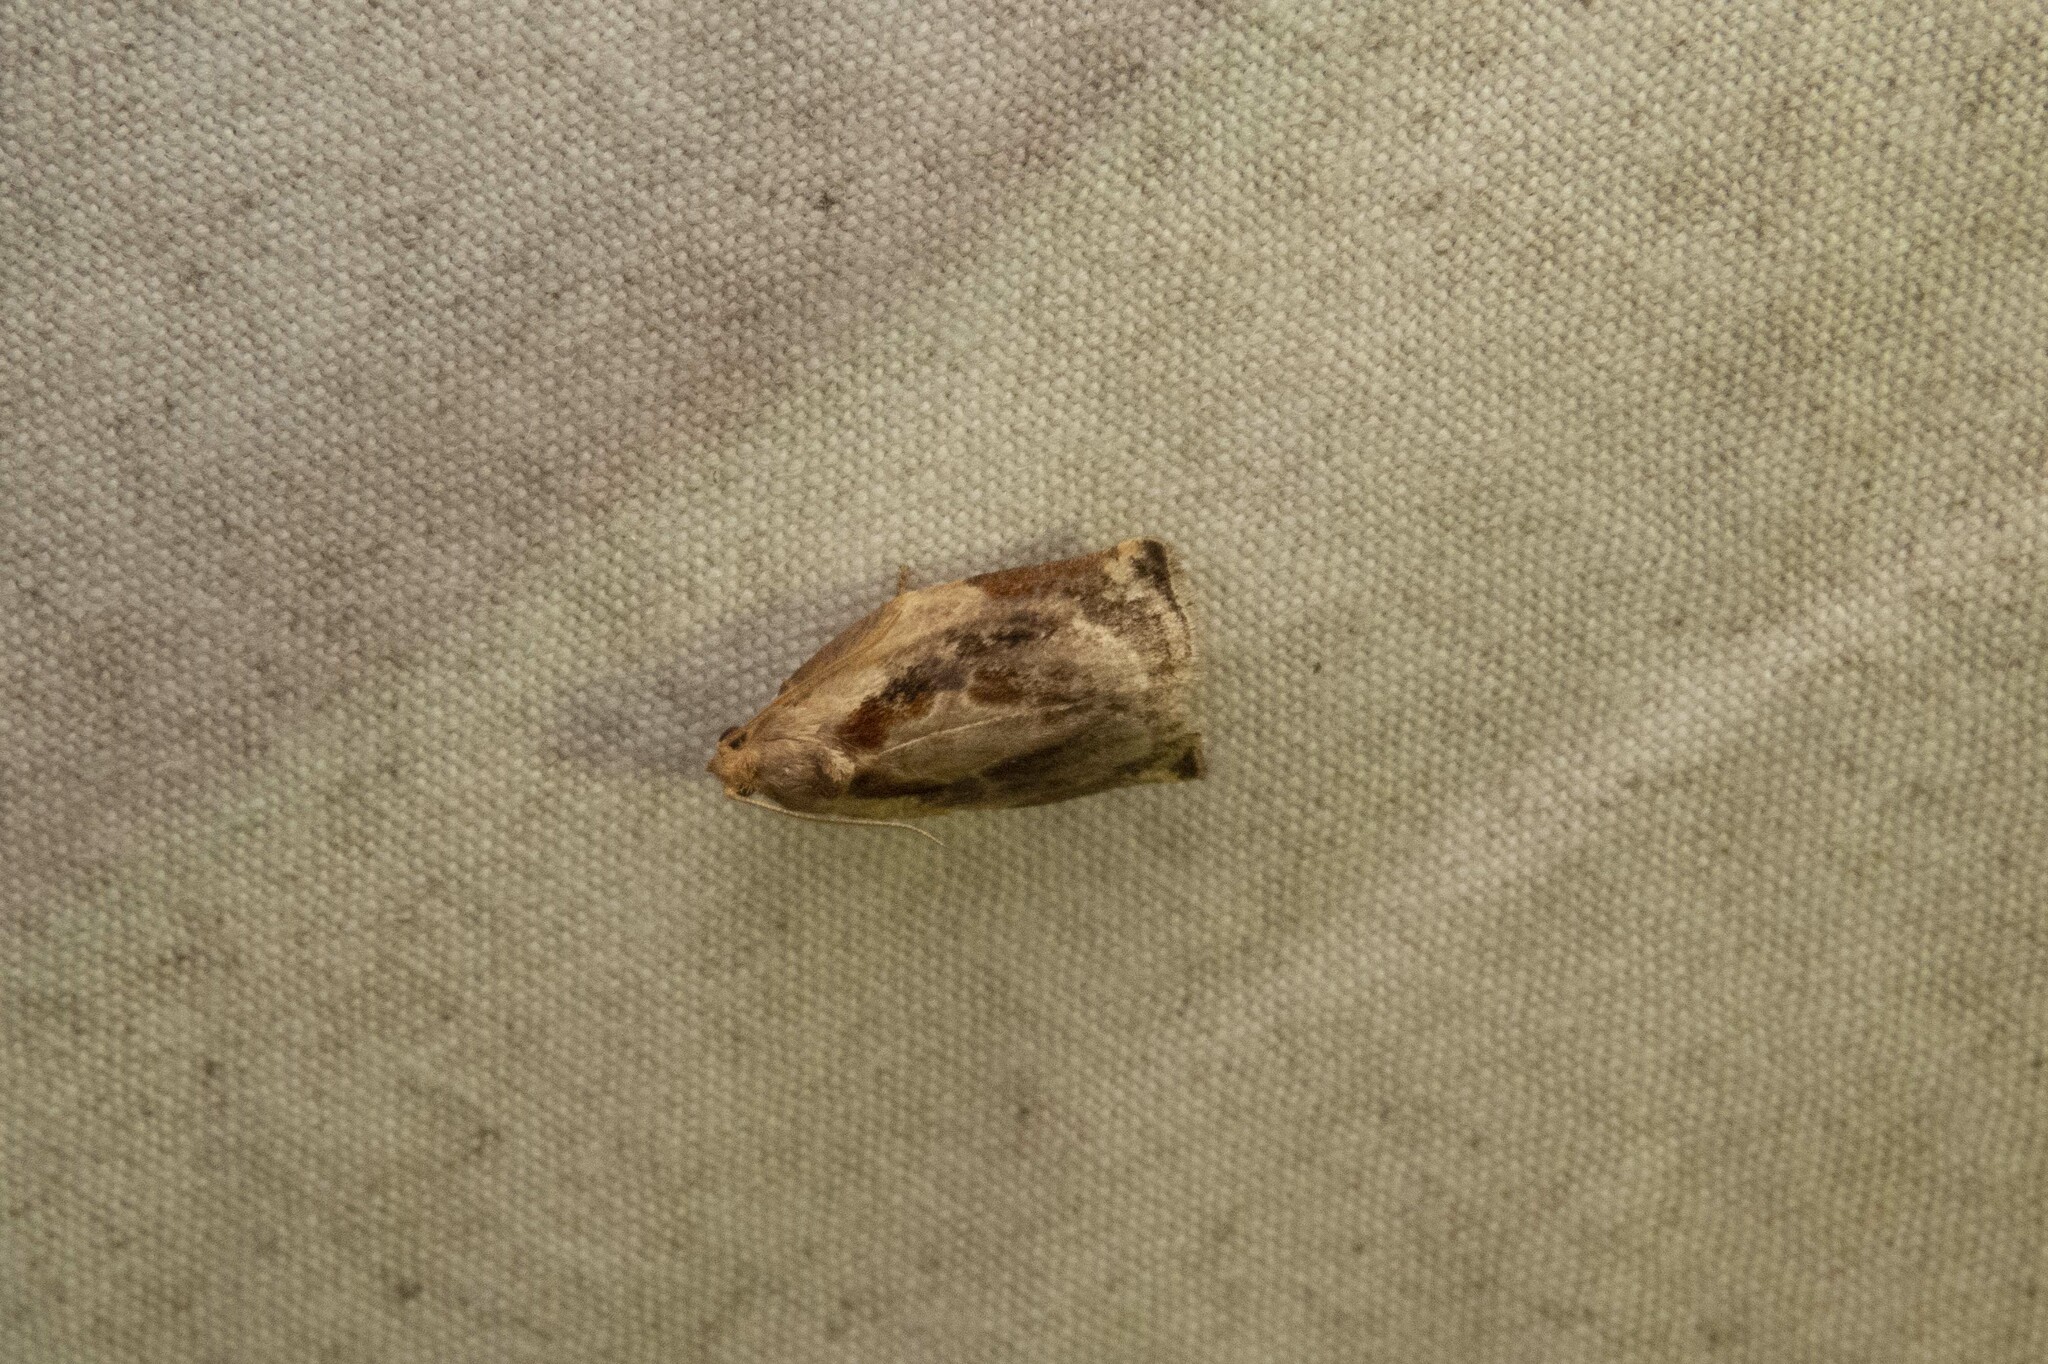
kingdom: Animalia
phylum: Arthropoda
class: Insecta
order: Lepidoptera
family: Tortricidae
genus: Archips
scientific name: Archips grisea
